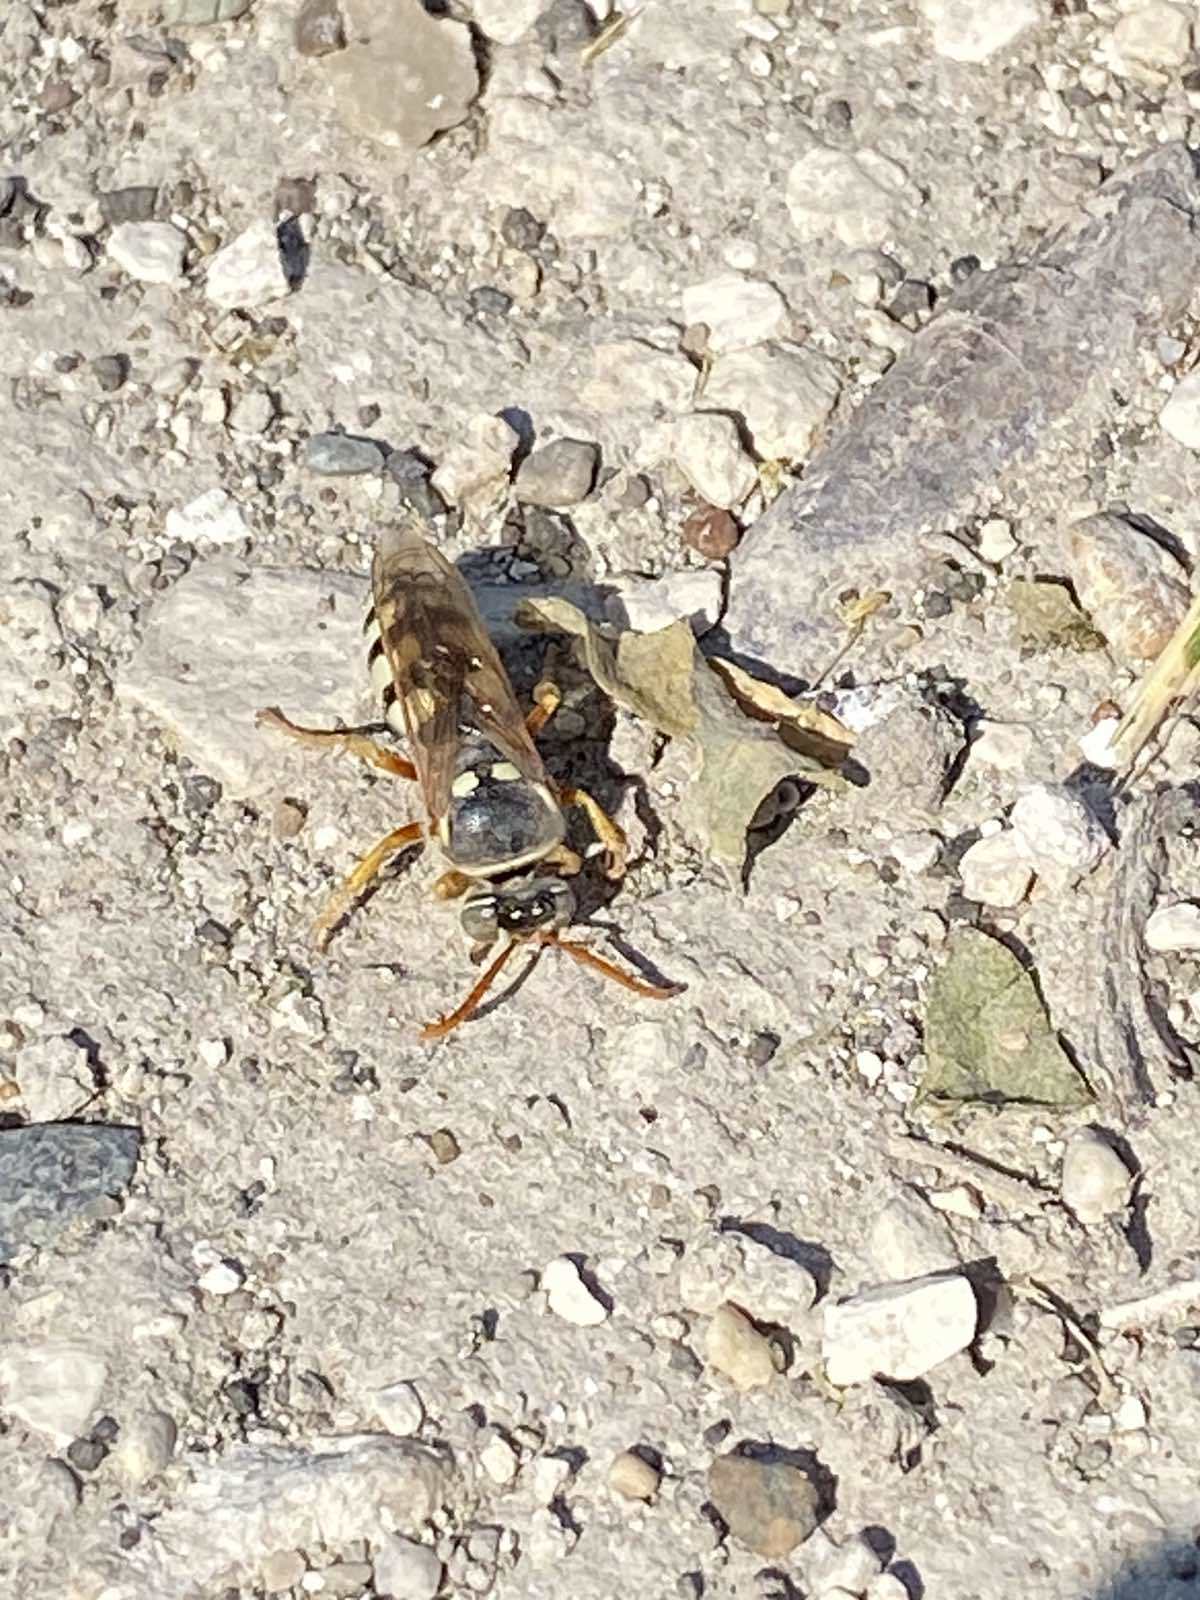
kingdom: Animalia
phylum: Arthropoda
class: Insecta
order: Hymenoptera
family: Crabronidae
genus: Stizus
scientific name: Stizus bipunctatus
